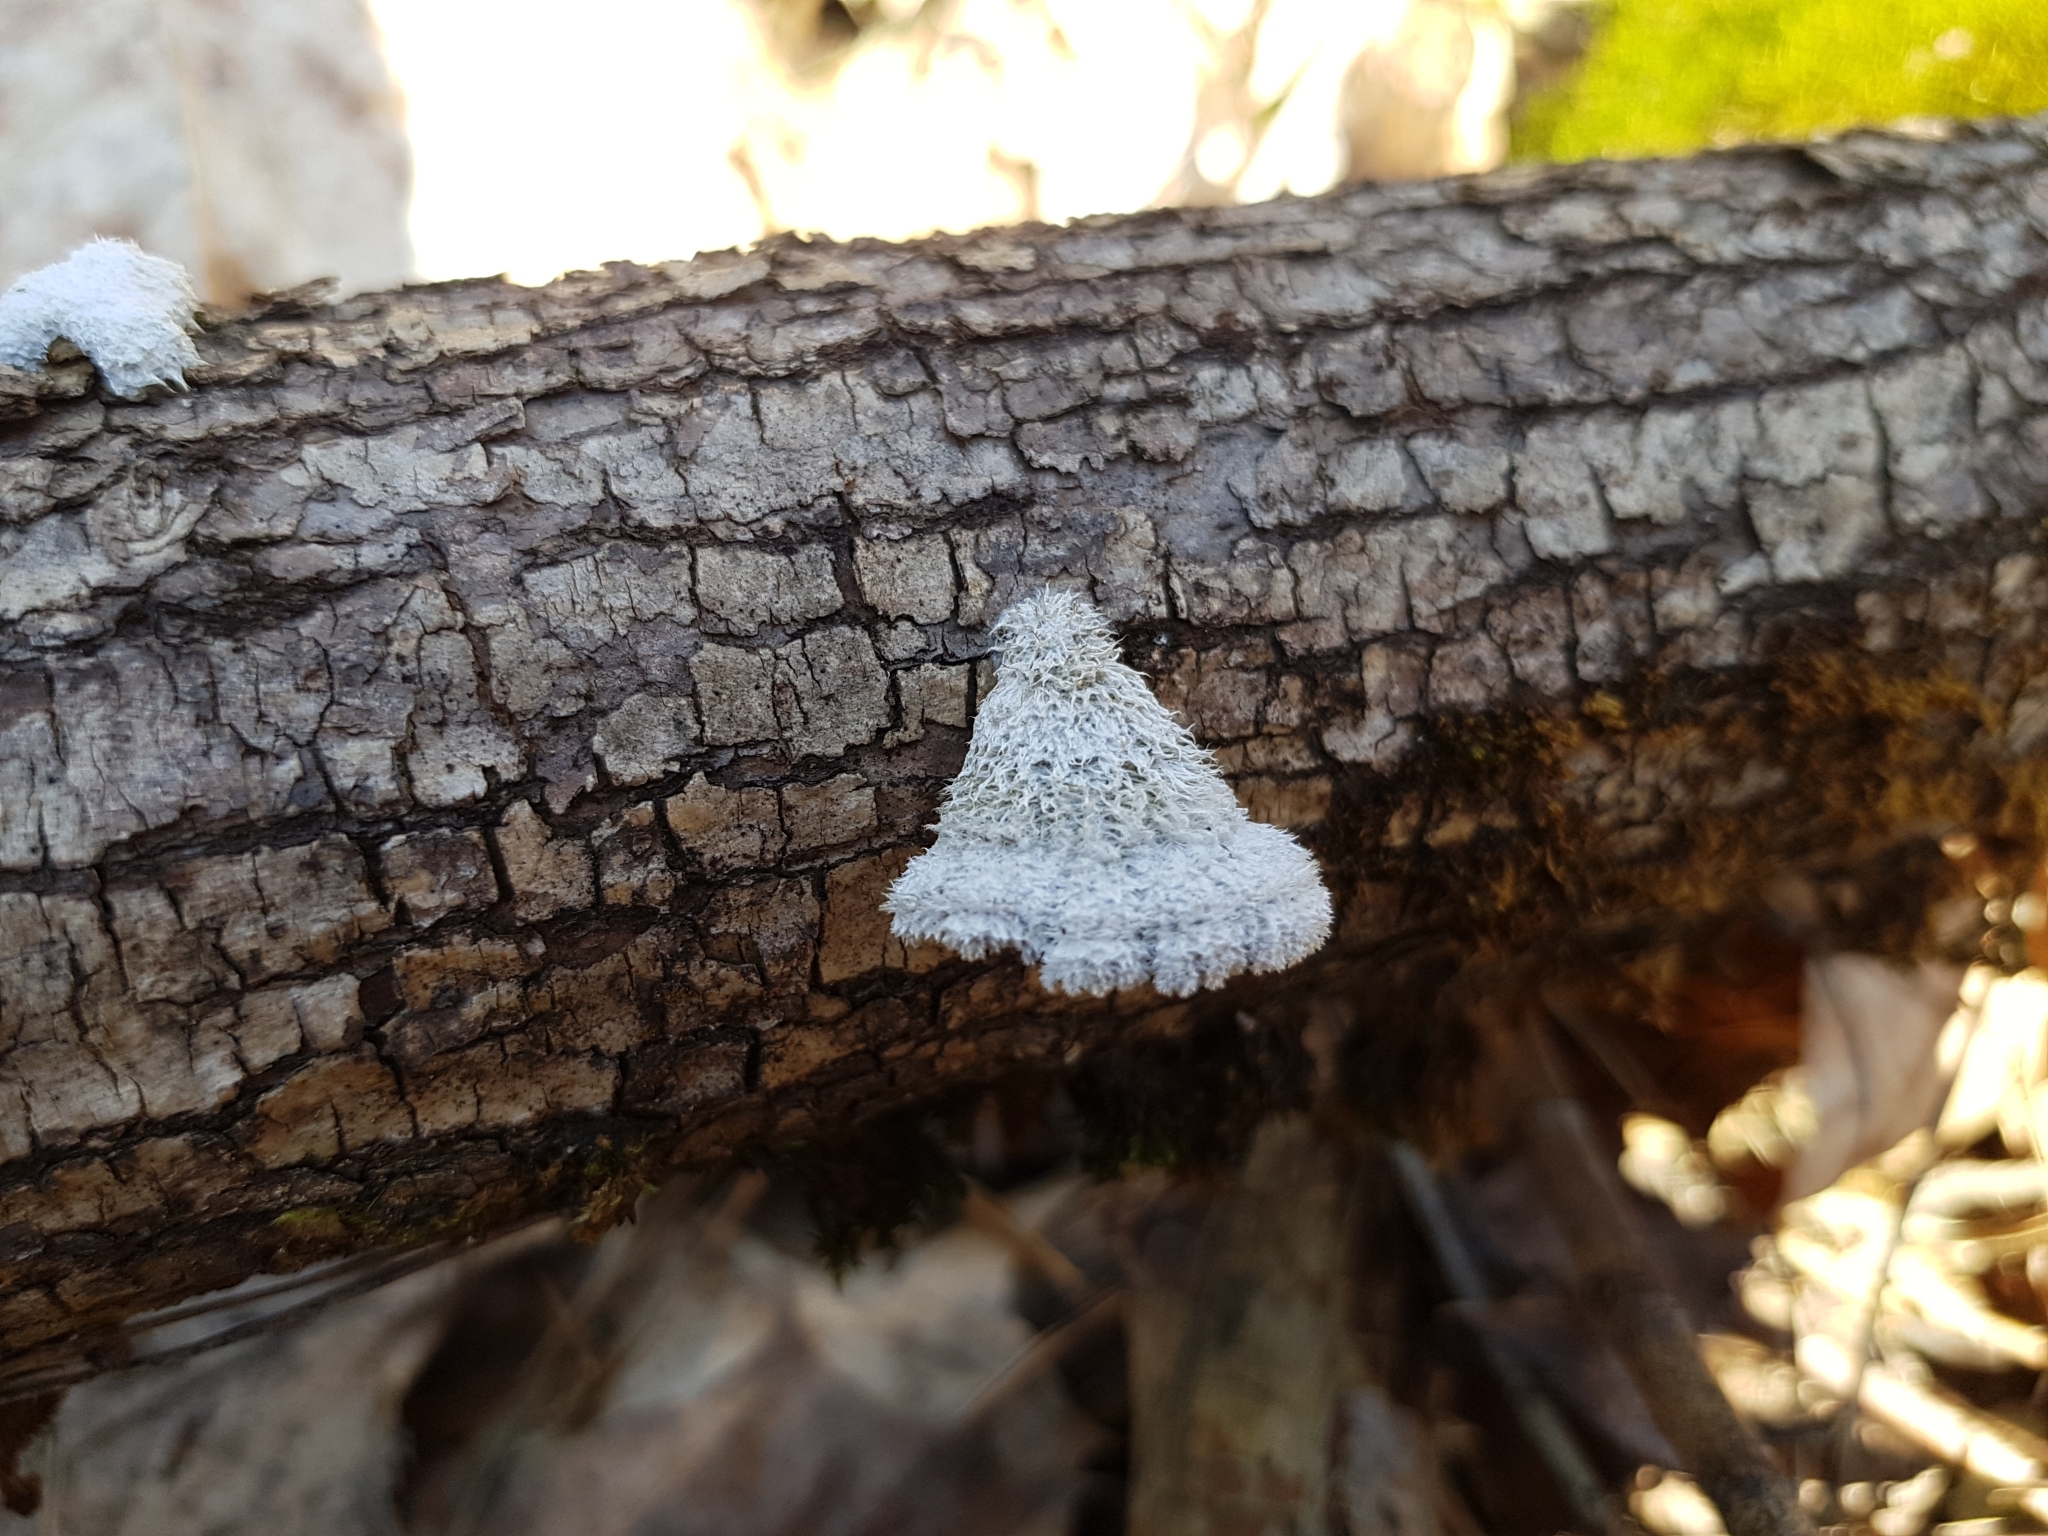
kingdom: Fungi
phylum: Basidiomycota
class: Agaricomycetes
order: Agaricales
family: Schizophyllaceae
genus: Schizophyllum
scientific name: Schizophyllum commune
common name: Common porecrust
